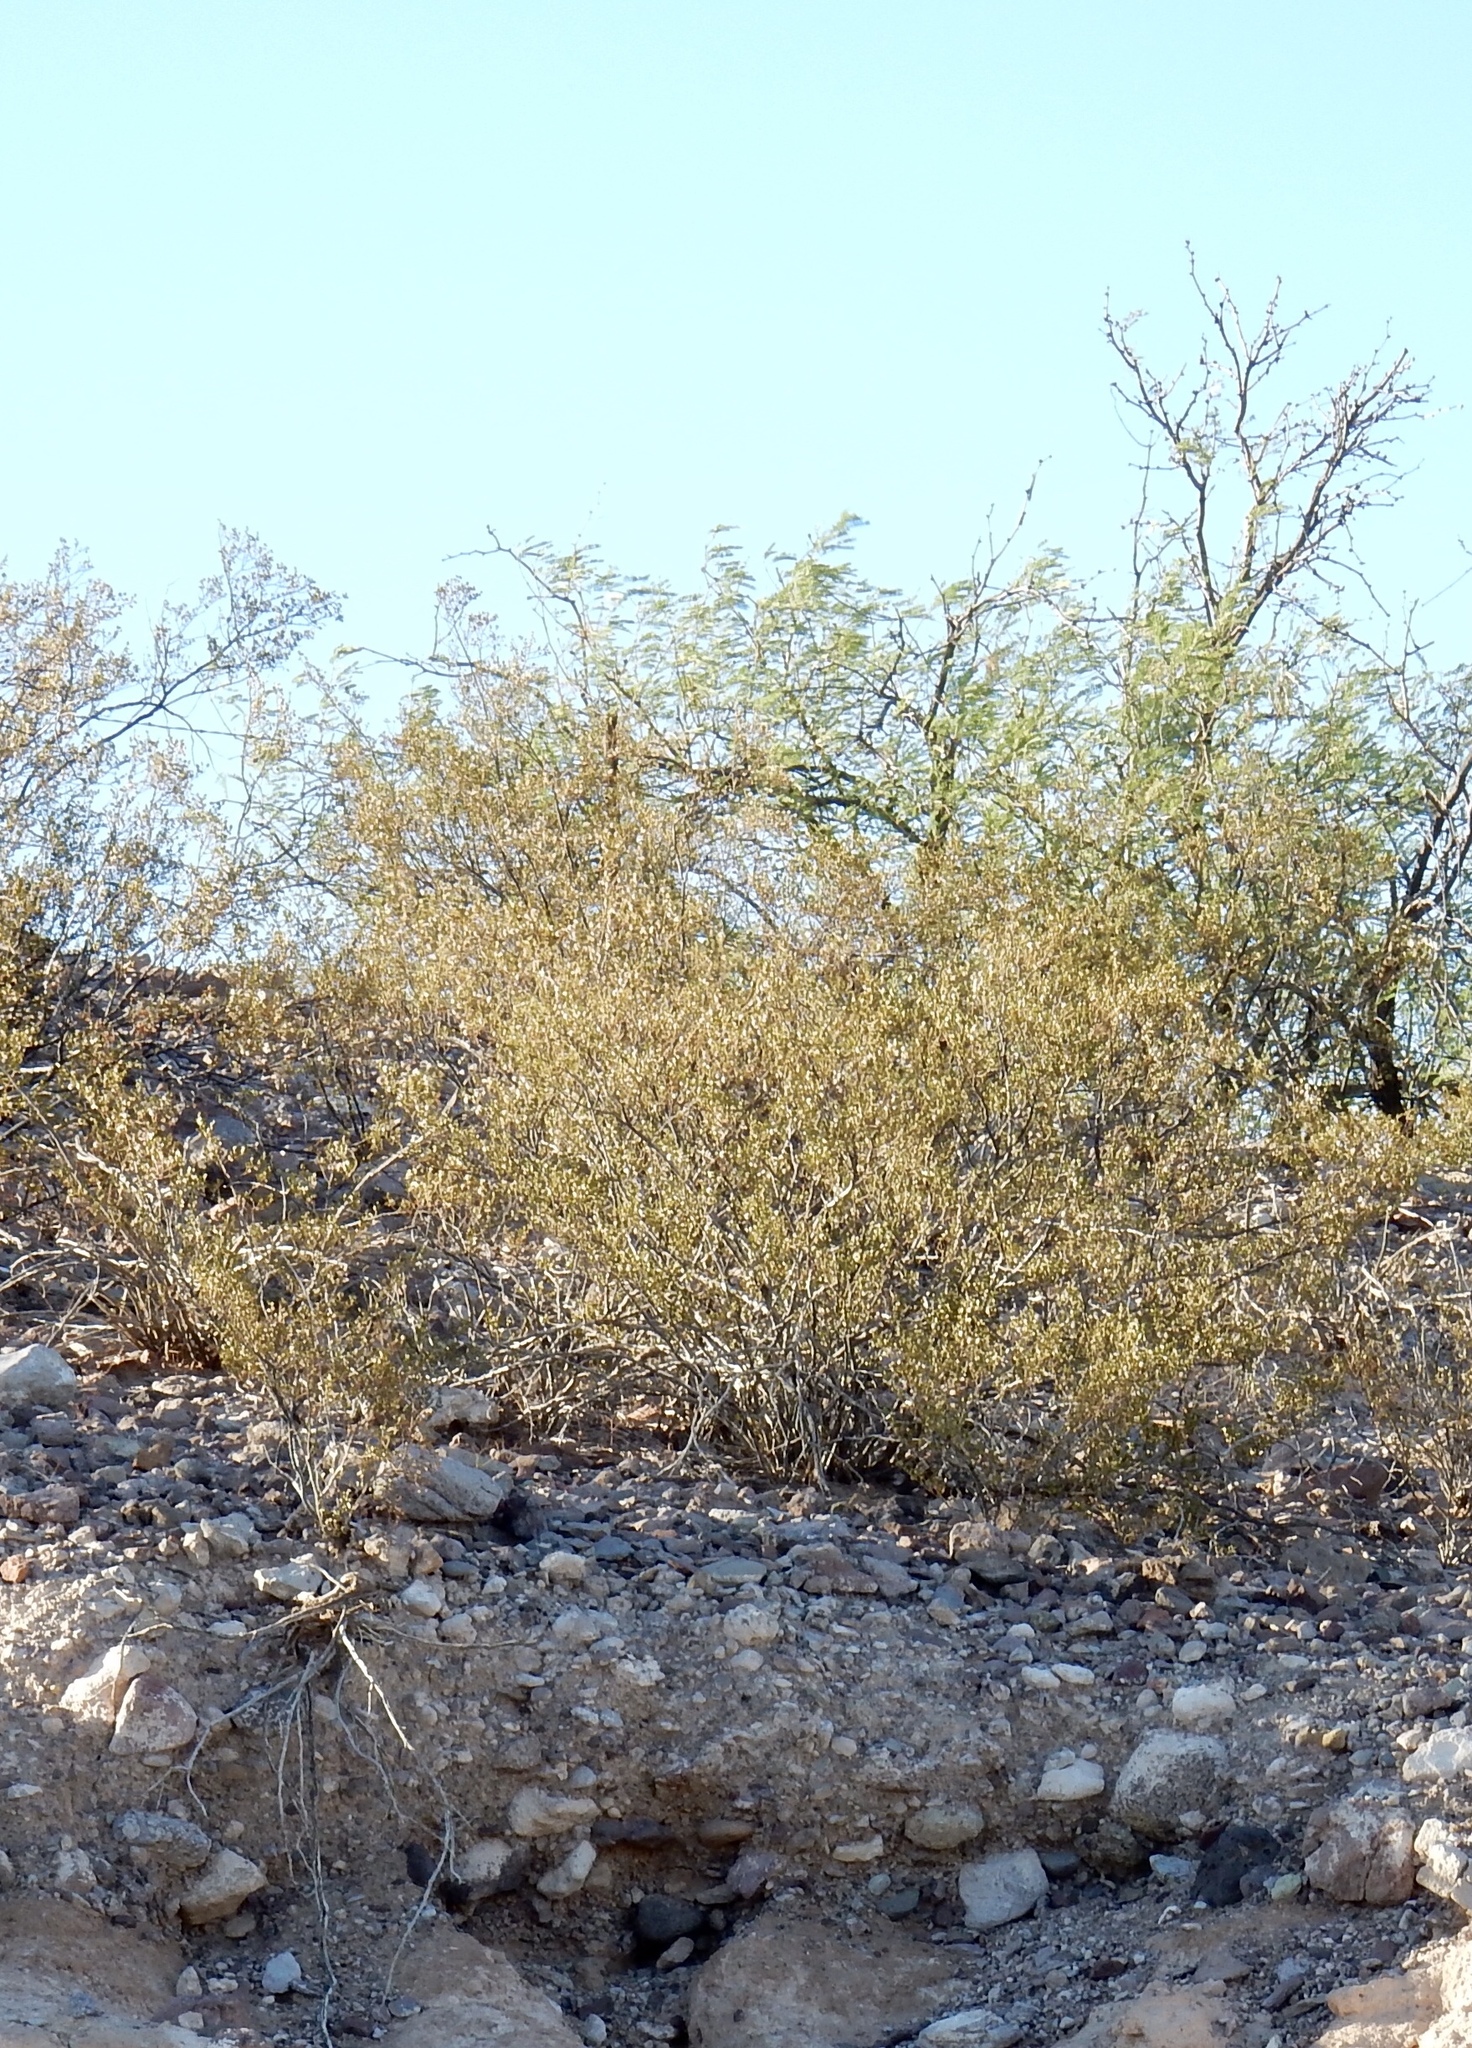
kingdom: Plantae
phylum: Tracheophyta
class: Magnoliopsida
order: Zygophyllales
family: Zygophyllaceae
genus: Larrea
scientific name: Larrea tridentata
